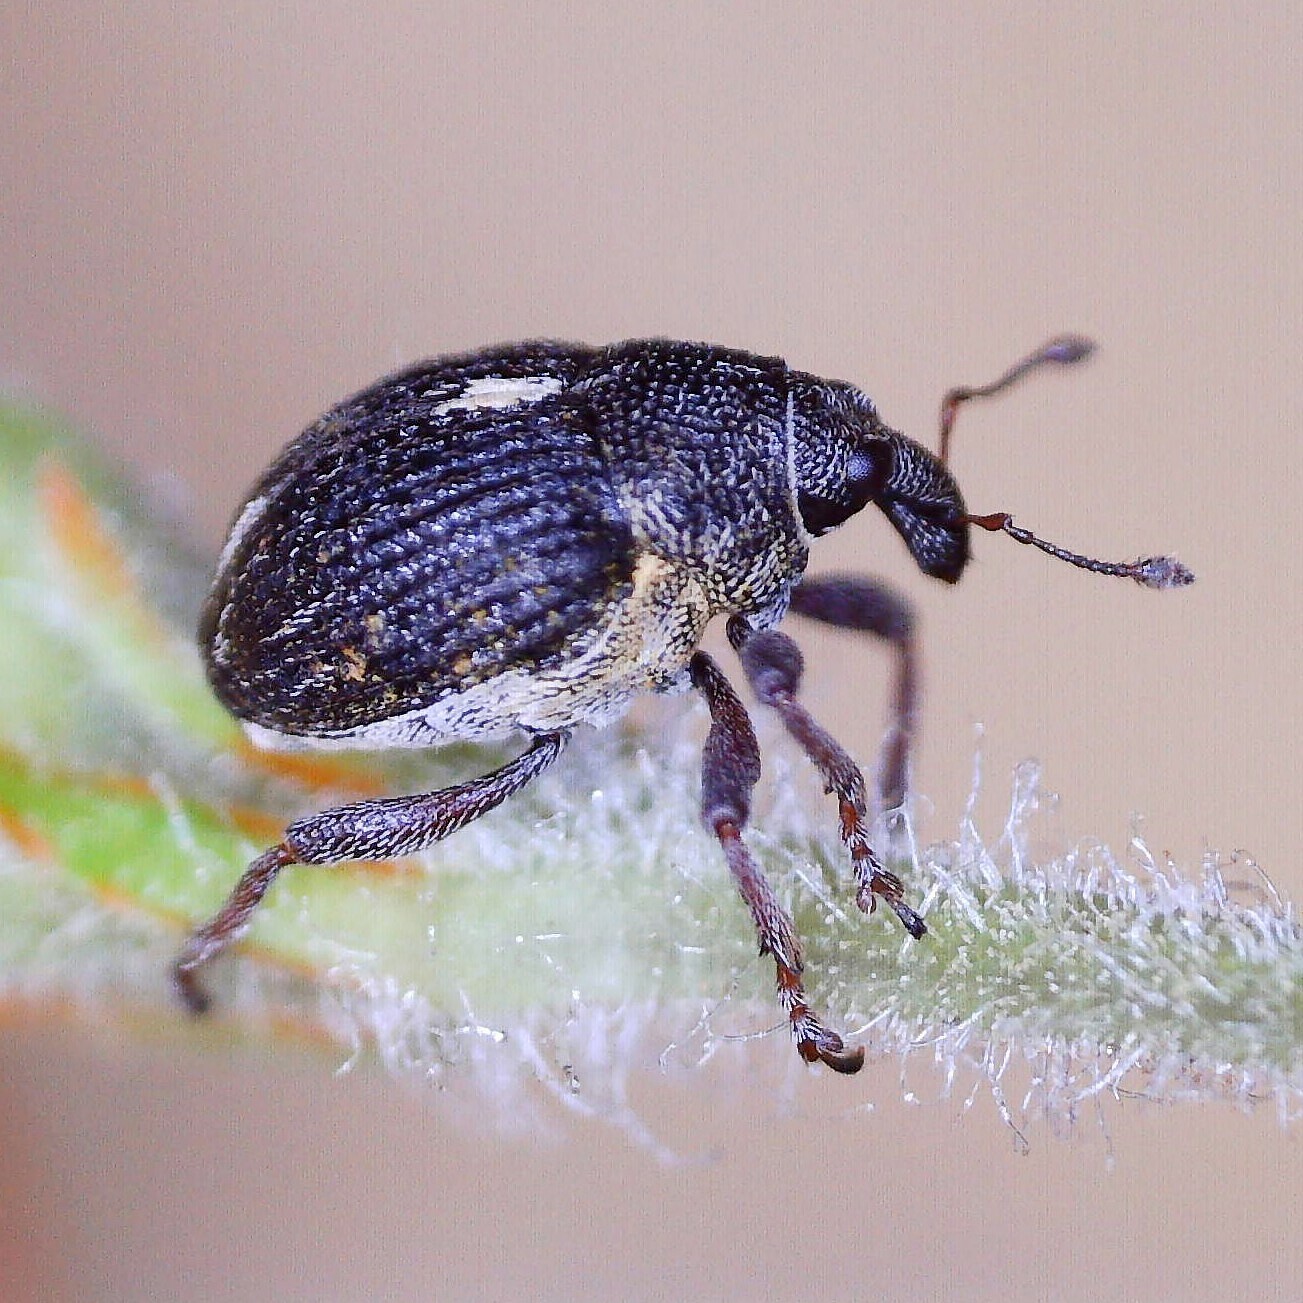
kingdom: Animalia
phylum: Arthropoda
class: Insecta
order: Coleoptera
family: Curculionidae
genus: Rhinoncus
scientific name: Rhinoncus leucostigma
